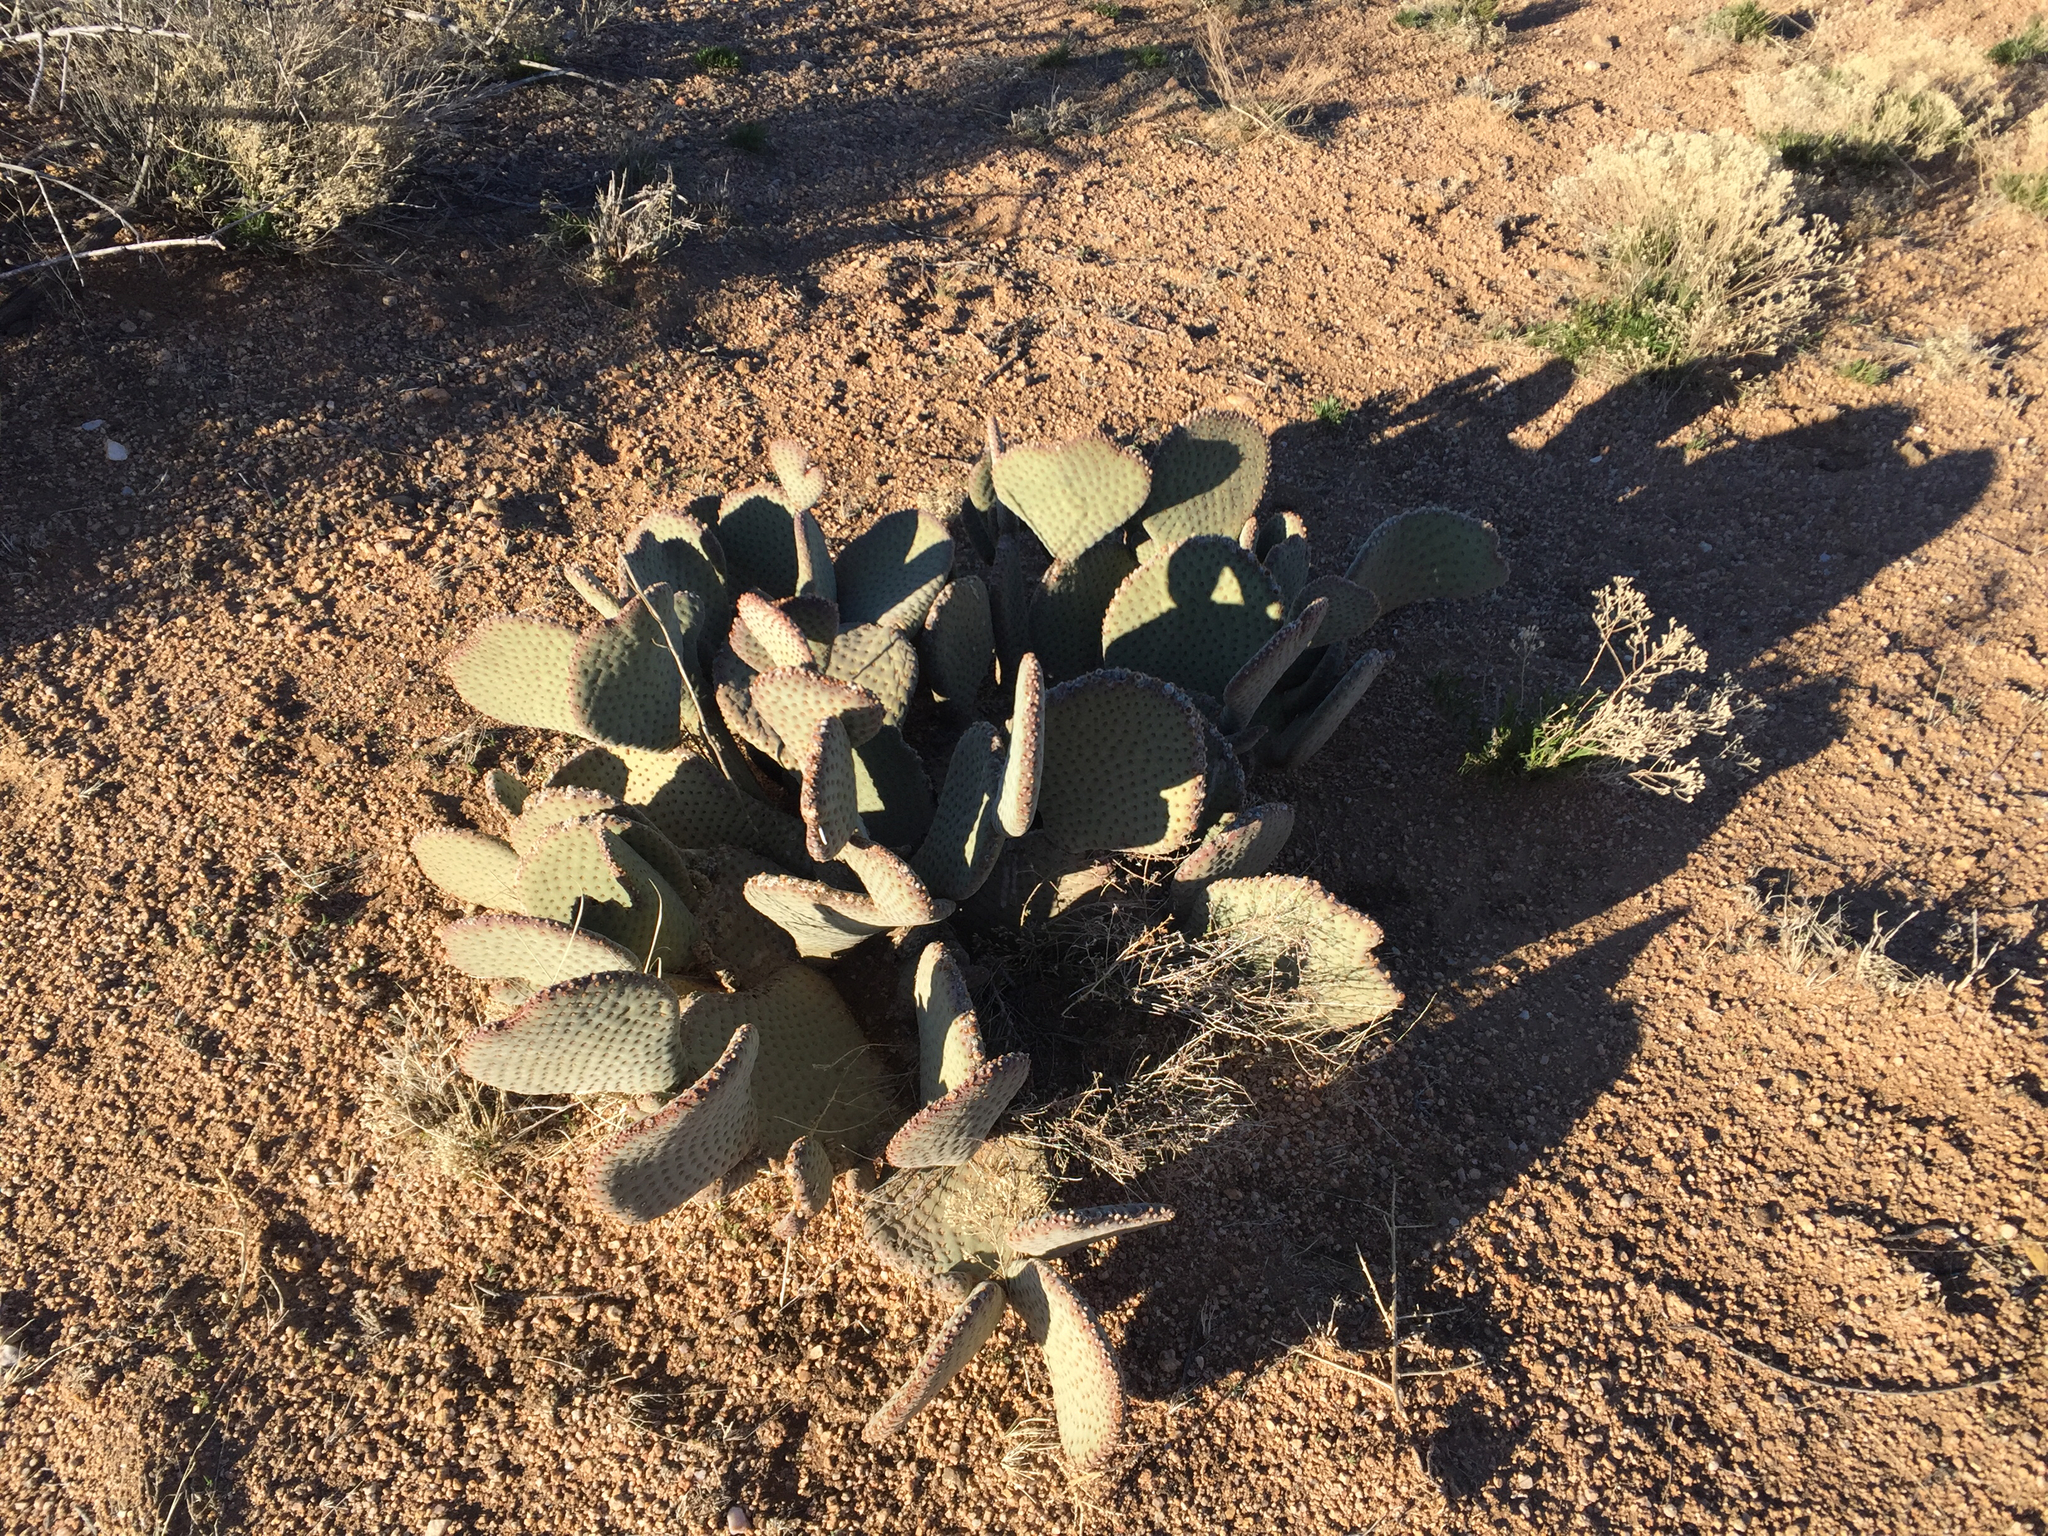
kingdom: Plantae
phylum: Tracheophyta
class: Magnoliopsida
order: Caryophyllales
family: Cactaceae
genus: Opuntia
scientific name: Opuntia basilaris
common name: Beavertail prickly-pear
